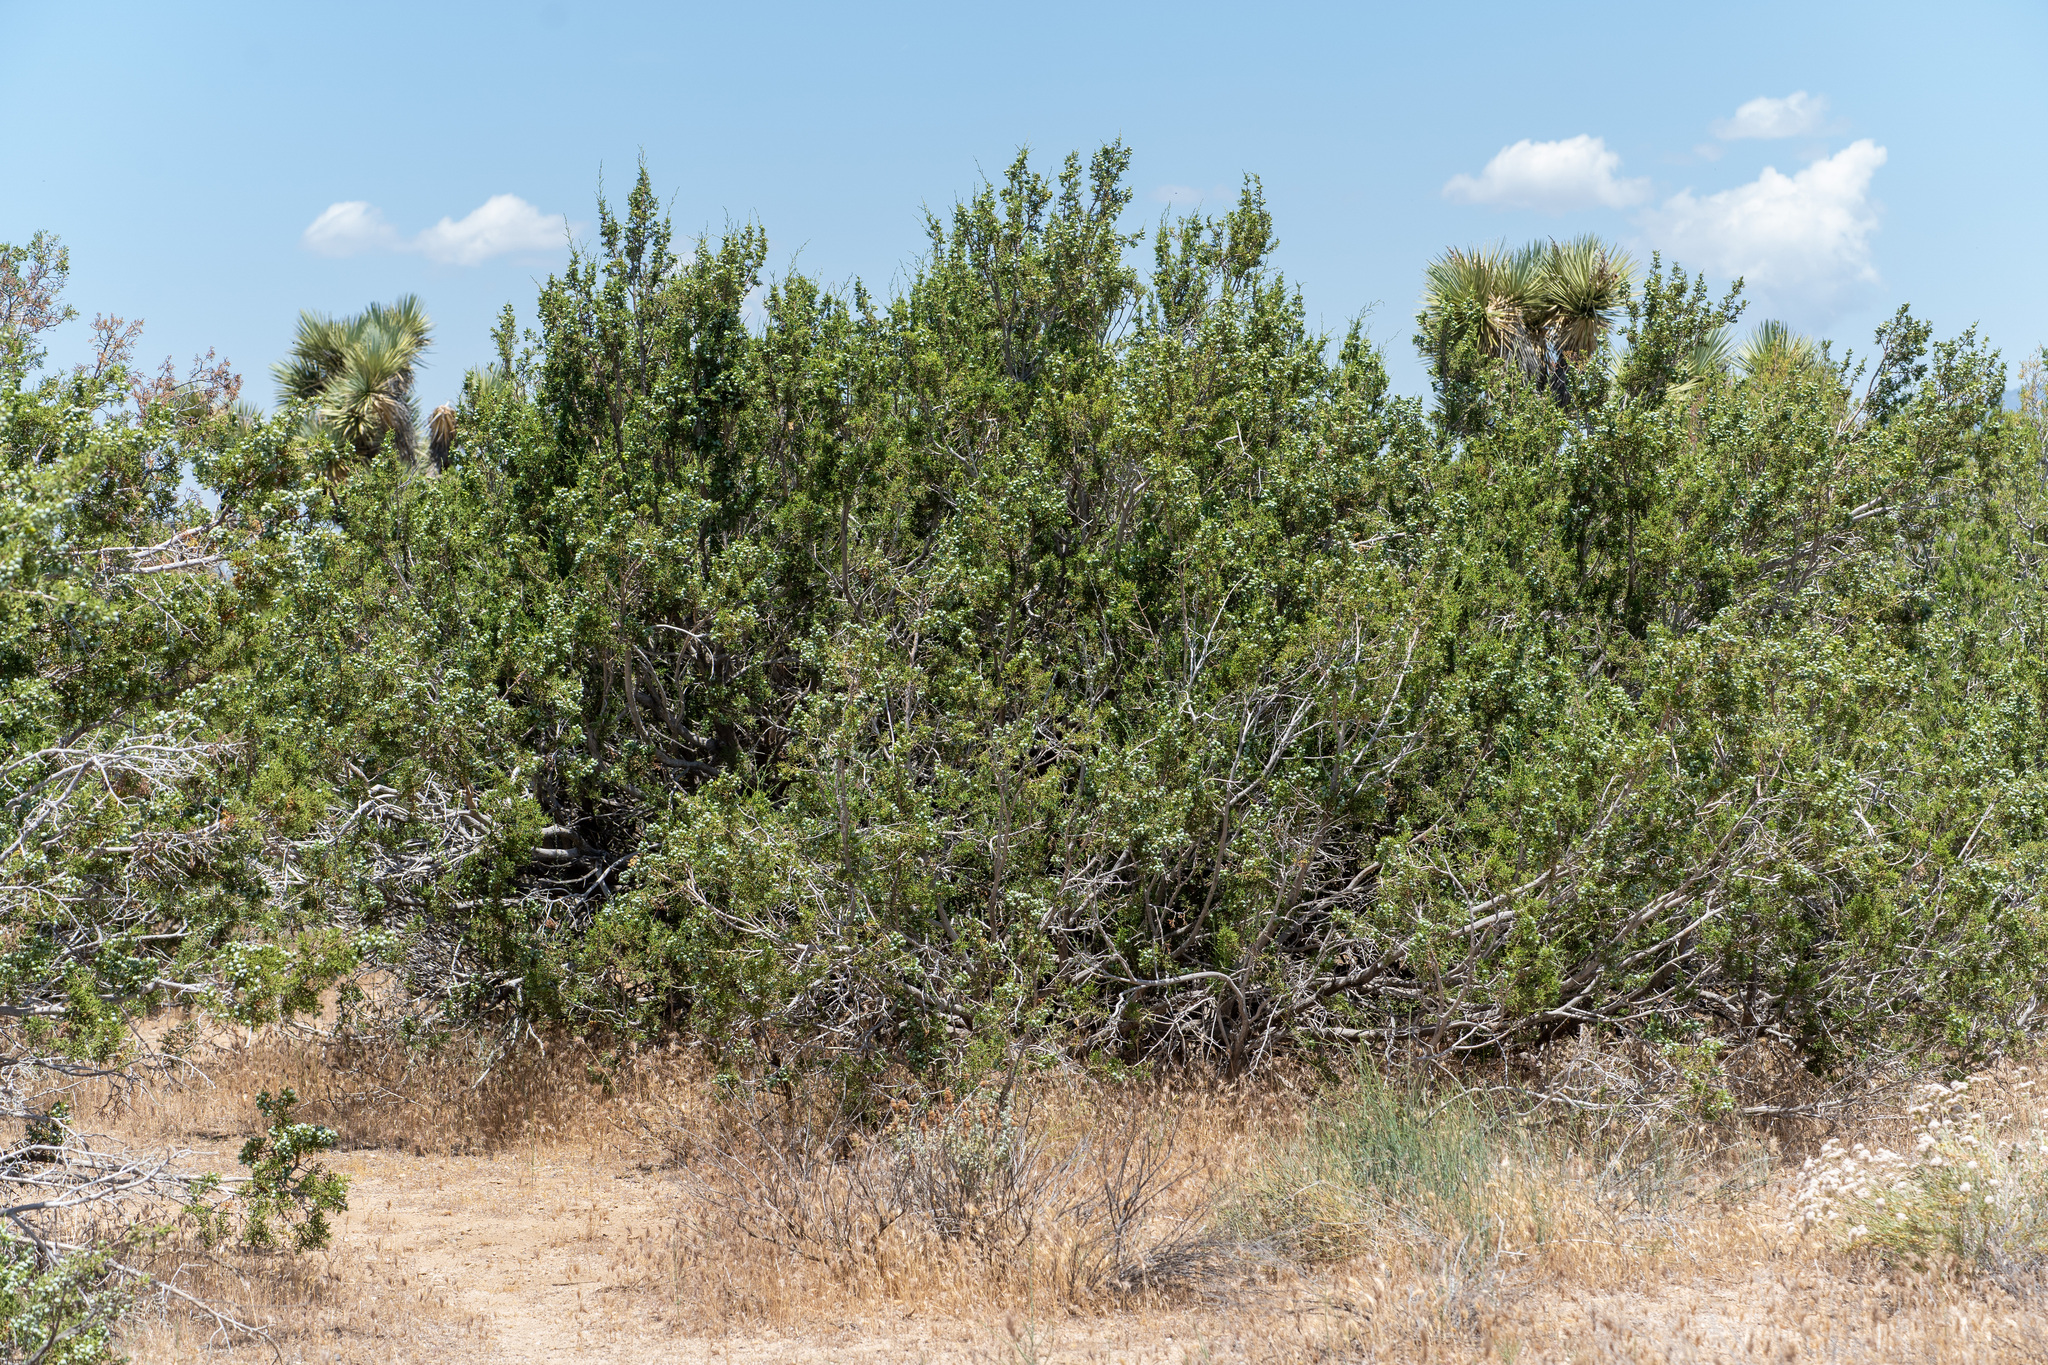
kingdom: Plantae
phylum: Tracheophyta
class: Pinopsida
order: Pinales
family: Cupressaceae
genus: Juniperus
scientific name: Juniperus californica
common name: California juniper
